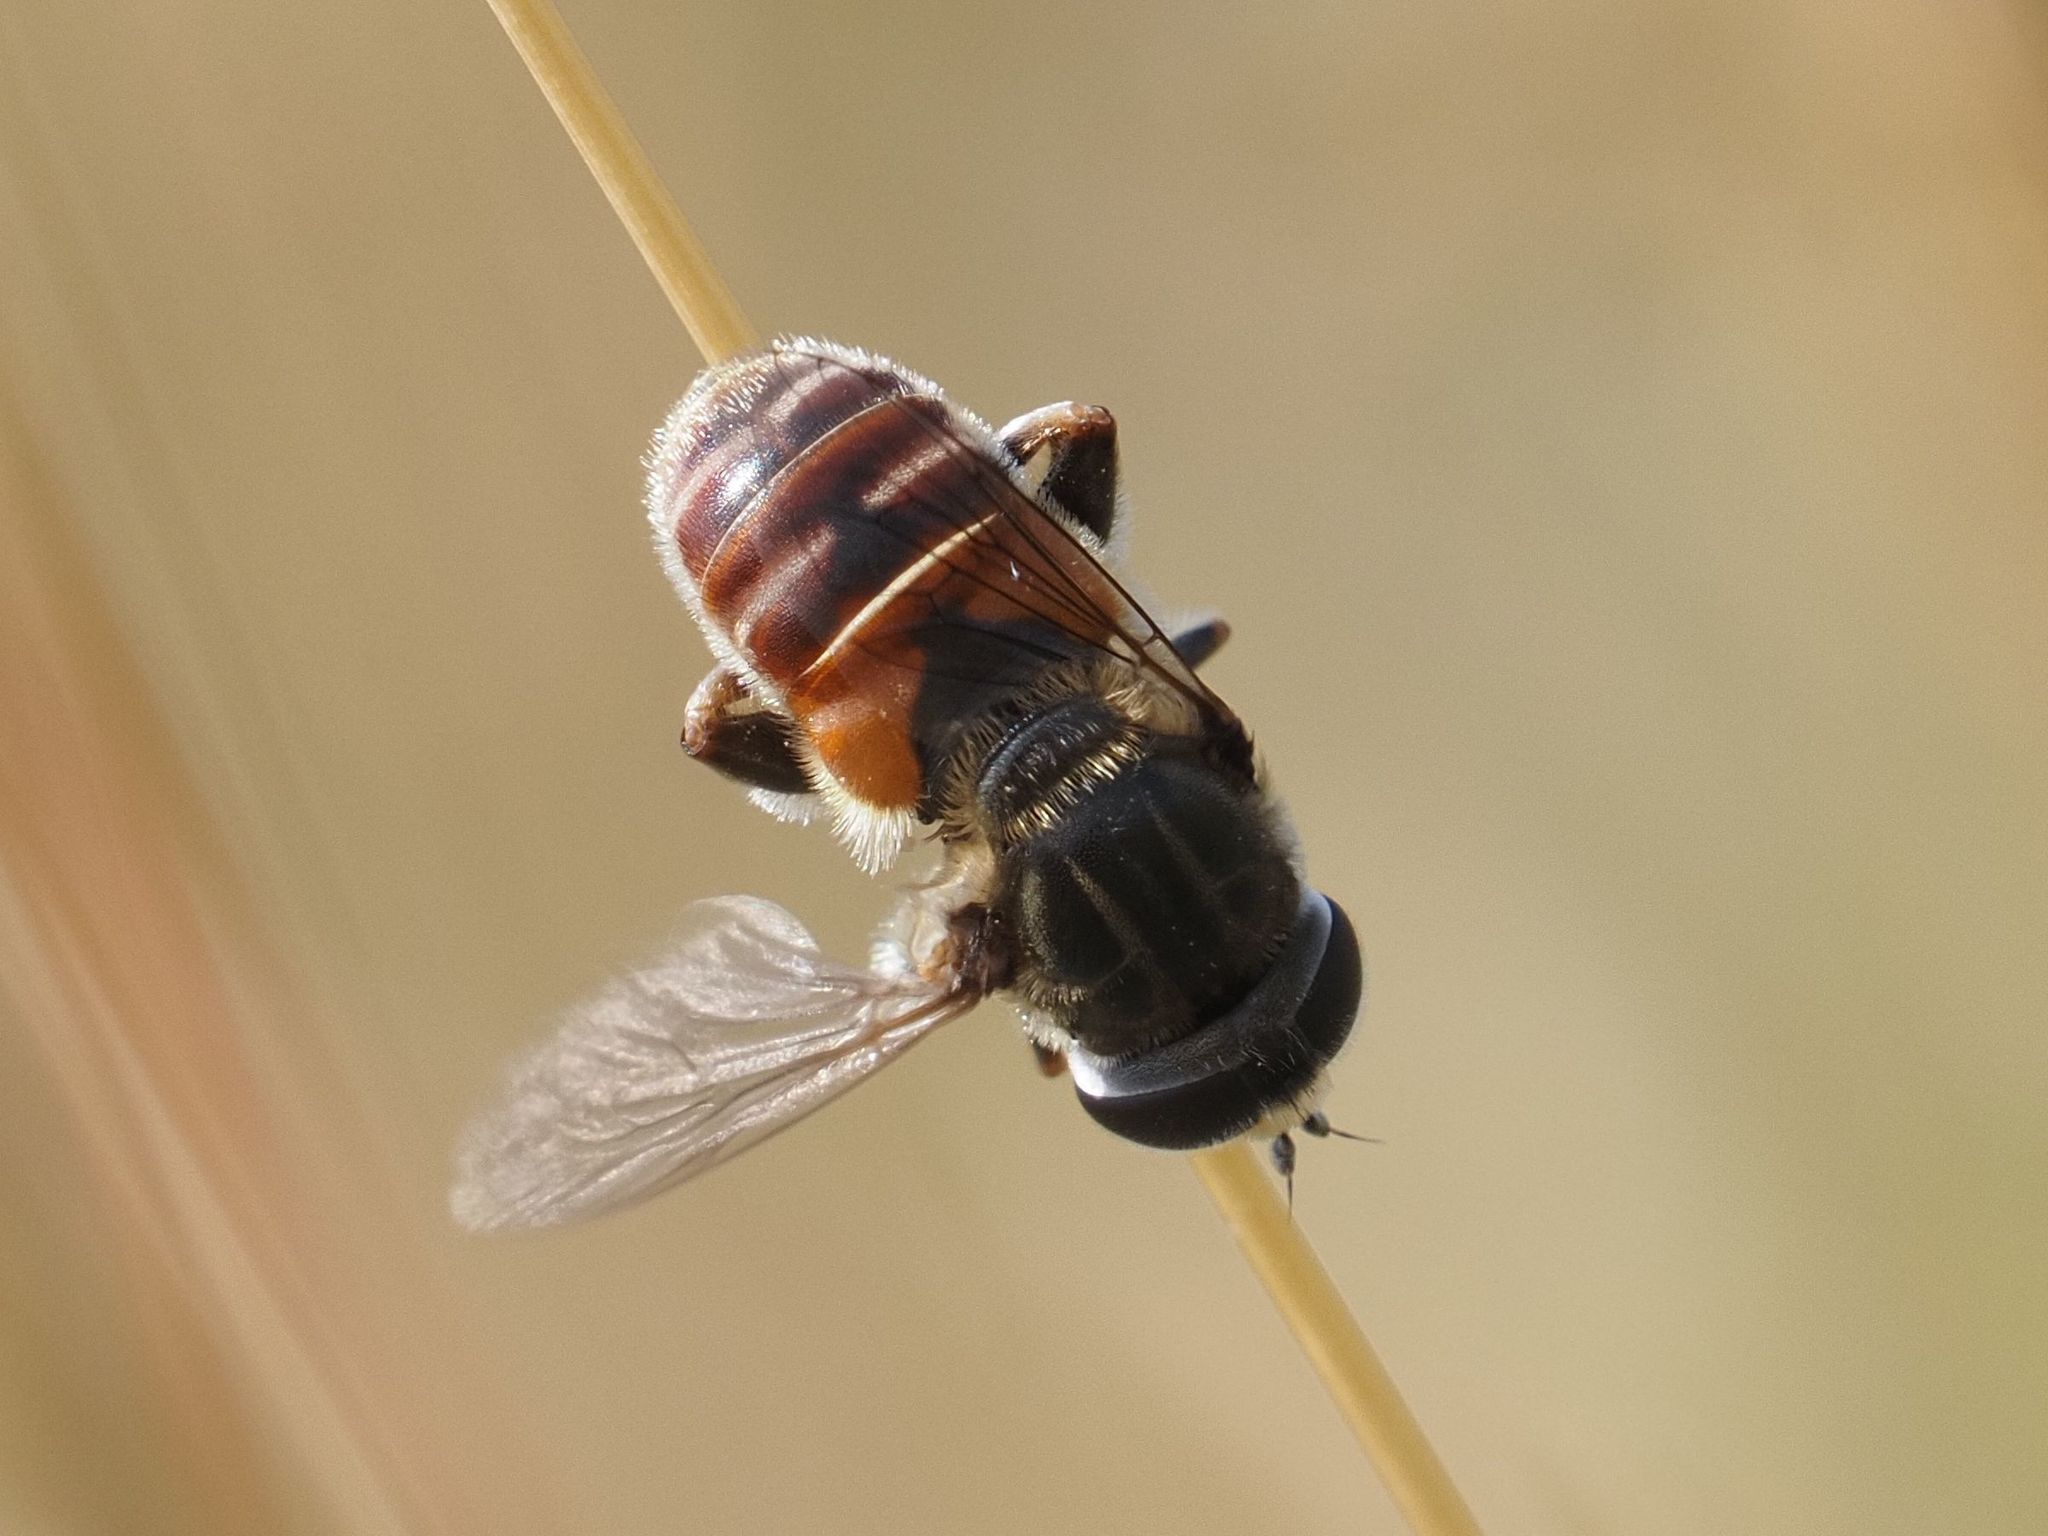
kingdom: Animalia
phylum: Arthropoda
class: Insecta
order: Diptera
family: Syrphidae
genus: Merodon
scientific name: Merodon albifrons
